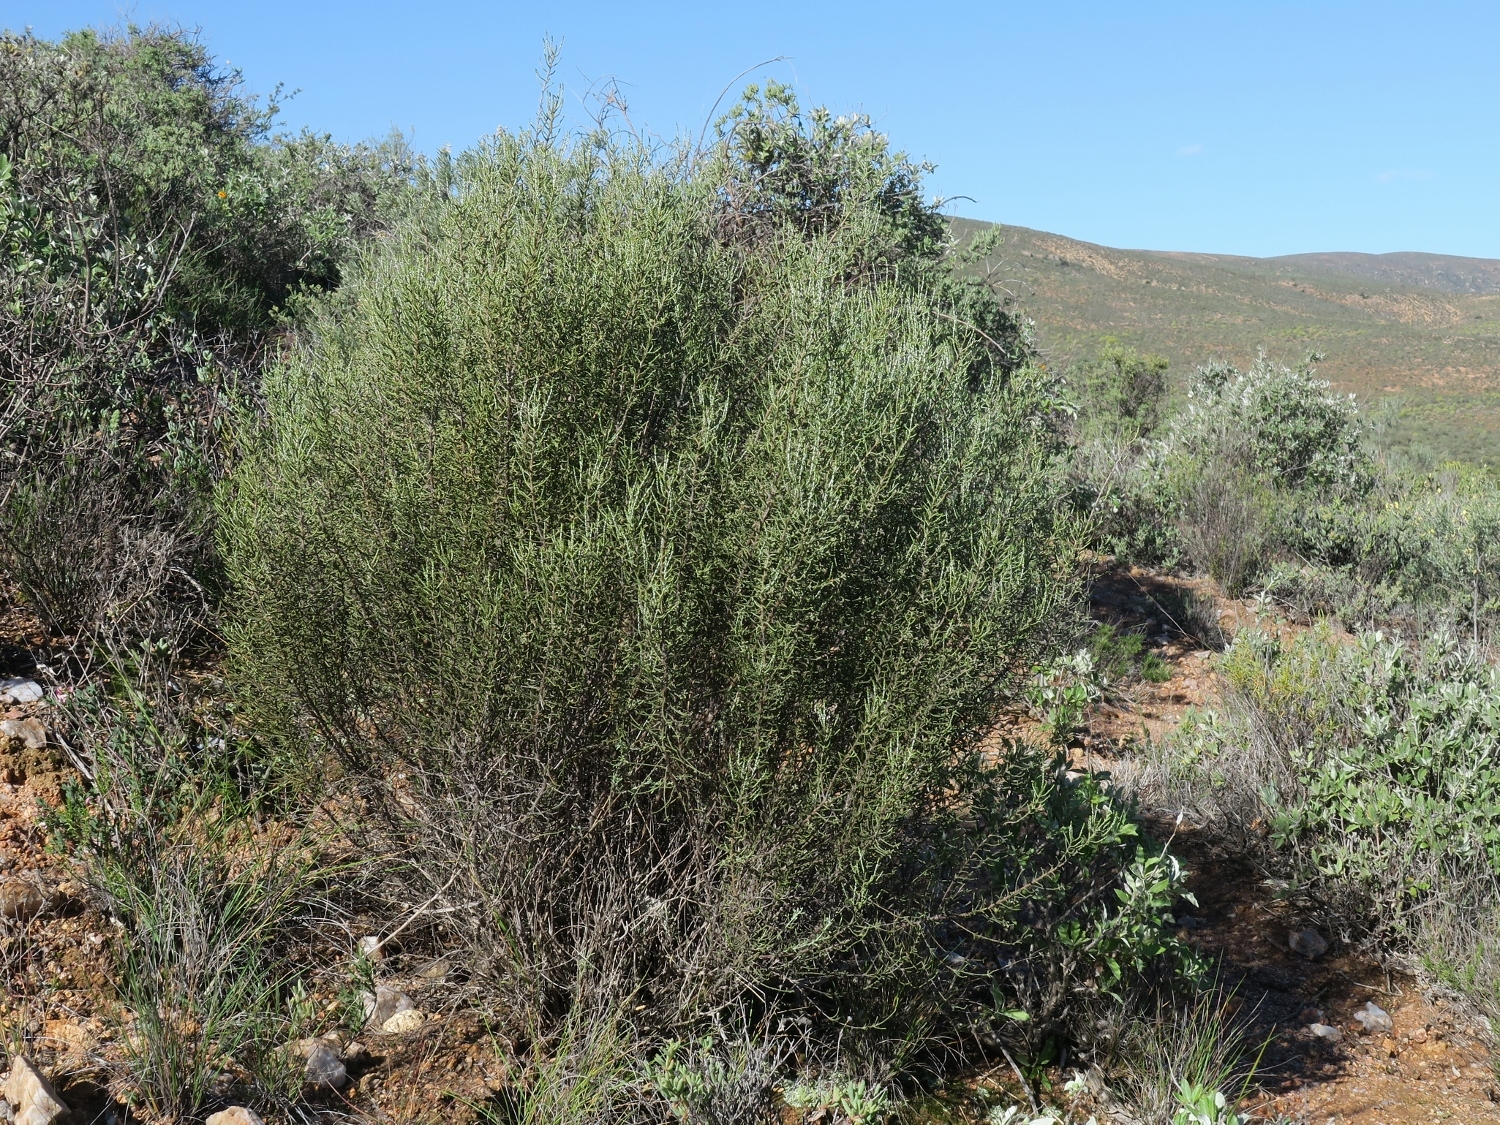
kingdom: Plantae
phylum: Tracheophyta
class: Magnoliopsida
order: Asterales
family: Asteraceae
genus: Dicerothamnus
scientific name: Dicerothamnus rhinocerotis
